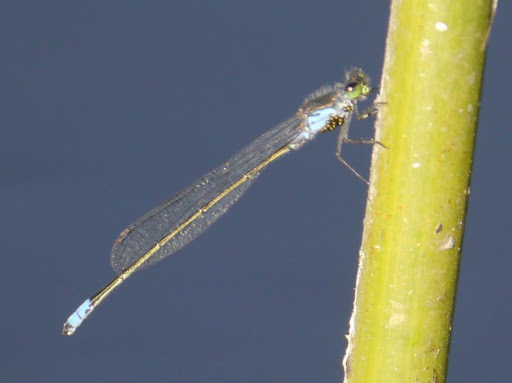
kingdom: Animalia
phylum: Arthropoda
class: Insecta
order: Odonata
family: Coenagrionidae
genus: Pseudagrion
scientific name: Pseudagrion deningi
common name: Dening's sprite
